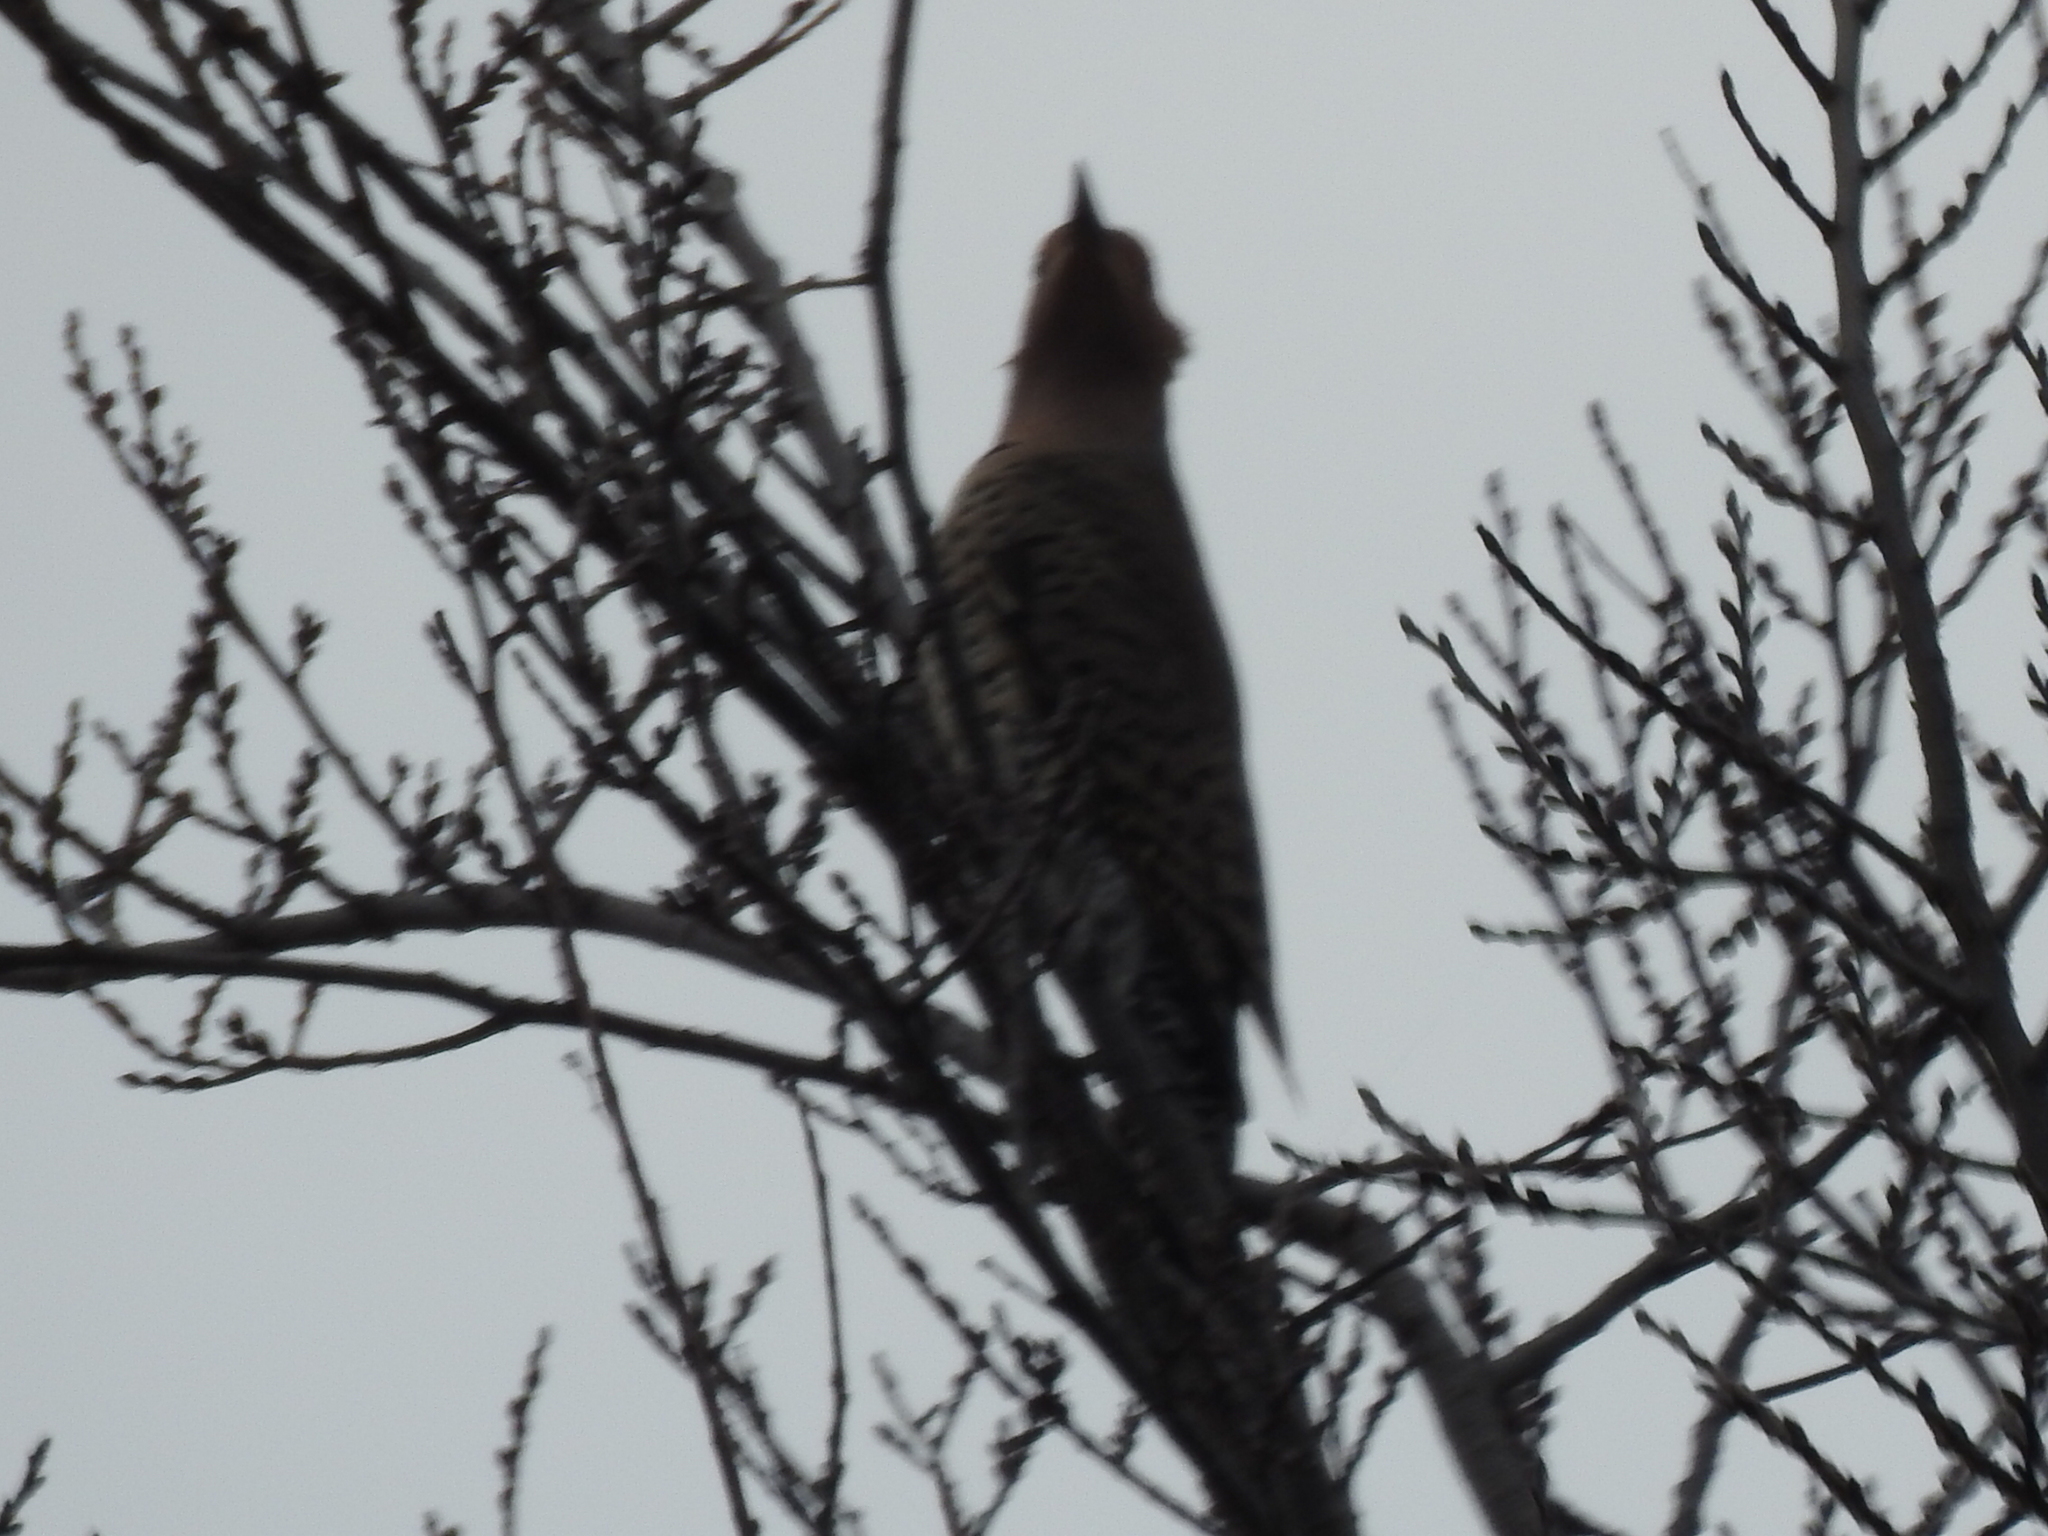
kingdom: Animalia
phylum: Chordata
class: Aves
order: Piciformes
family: Picidae
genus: Colaptes
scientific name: Colaptes auratus
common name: Northern flicker
